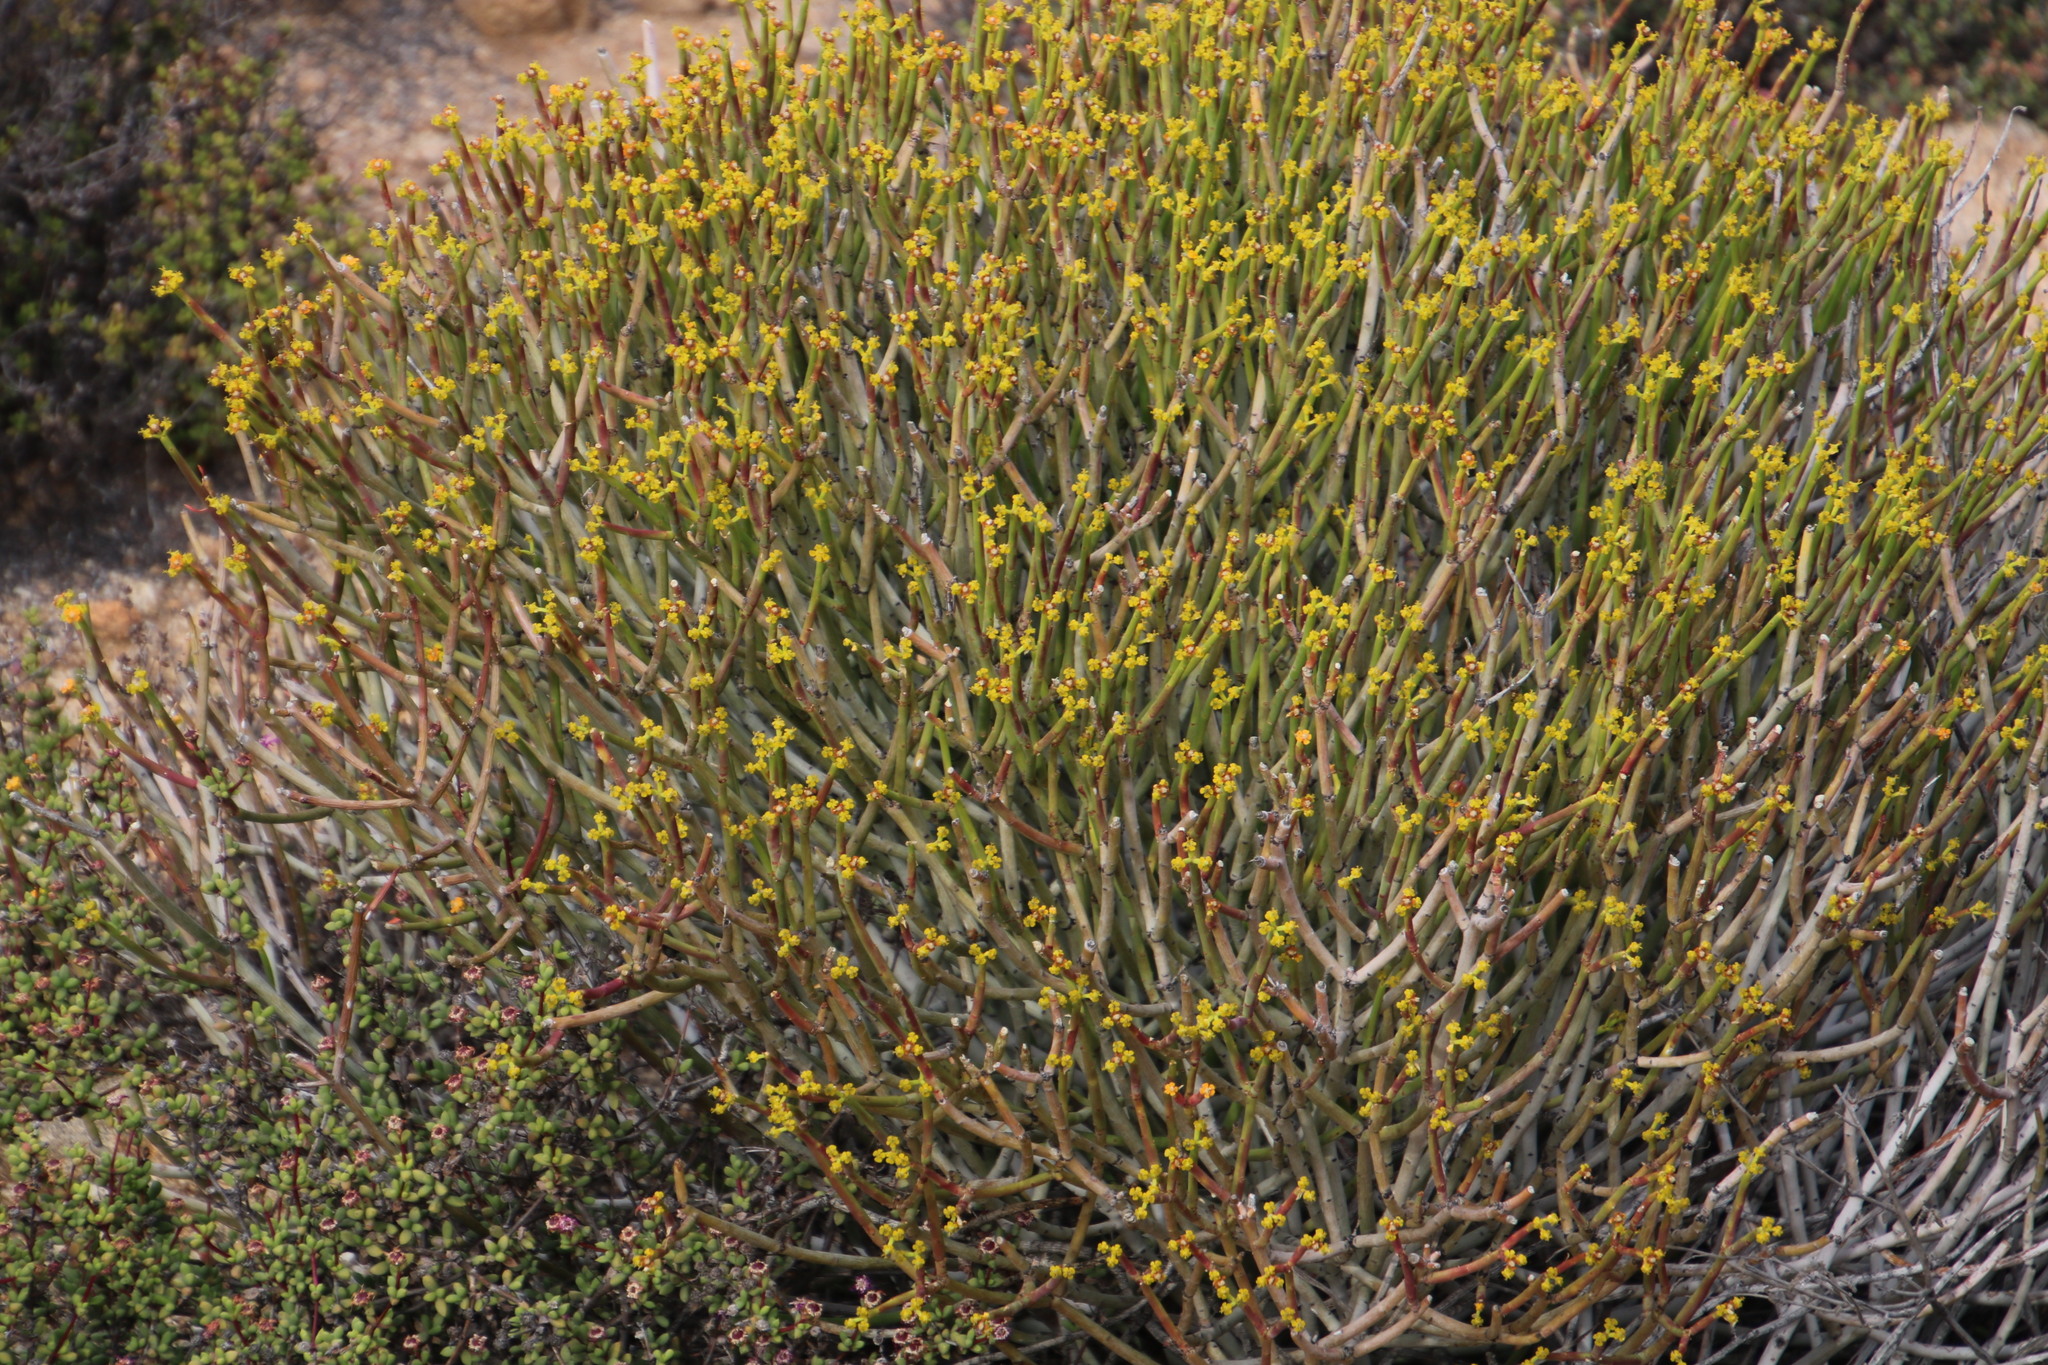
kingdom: Plantae
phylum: Tracheophyta
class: Magnoliopsida
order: Malpighiales
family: Euphorbiaceae
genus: Euphorbia
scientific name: Euphorbia mauritanica
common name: Jackal's-food
